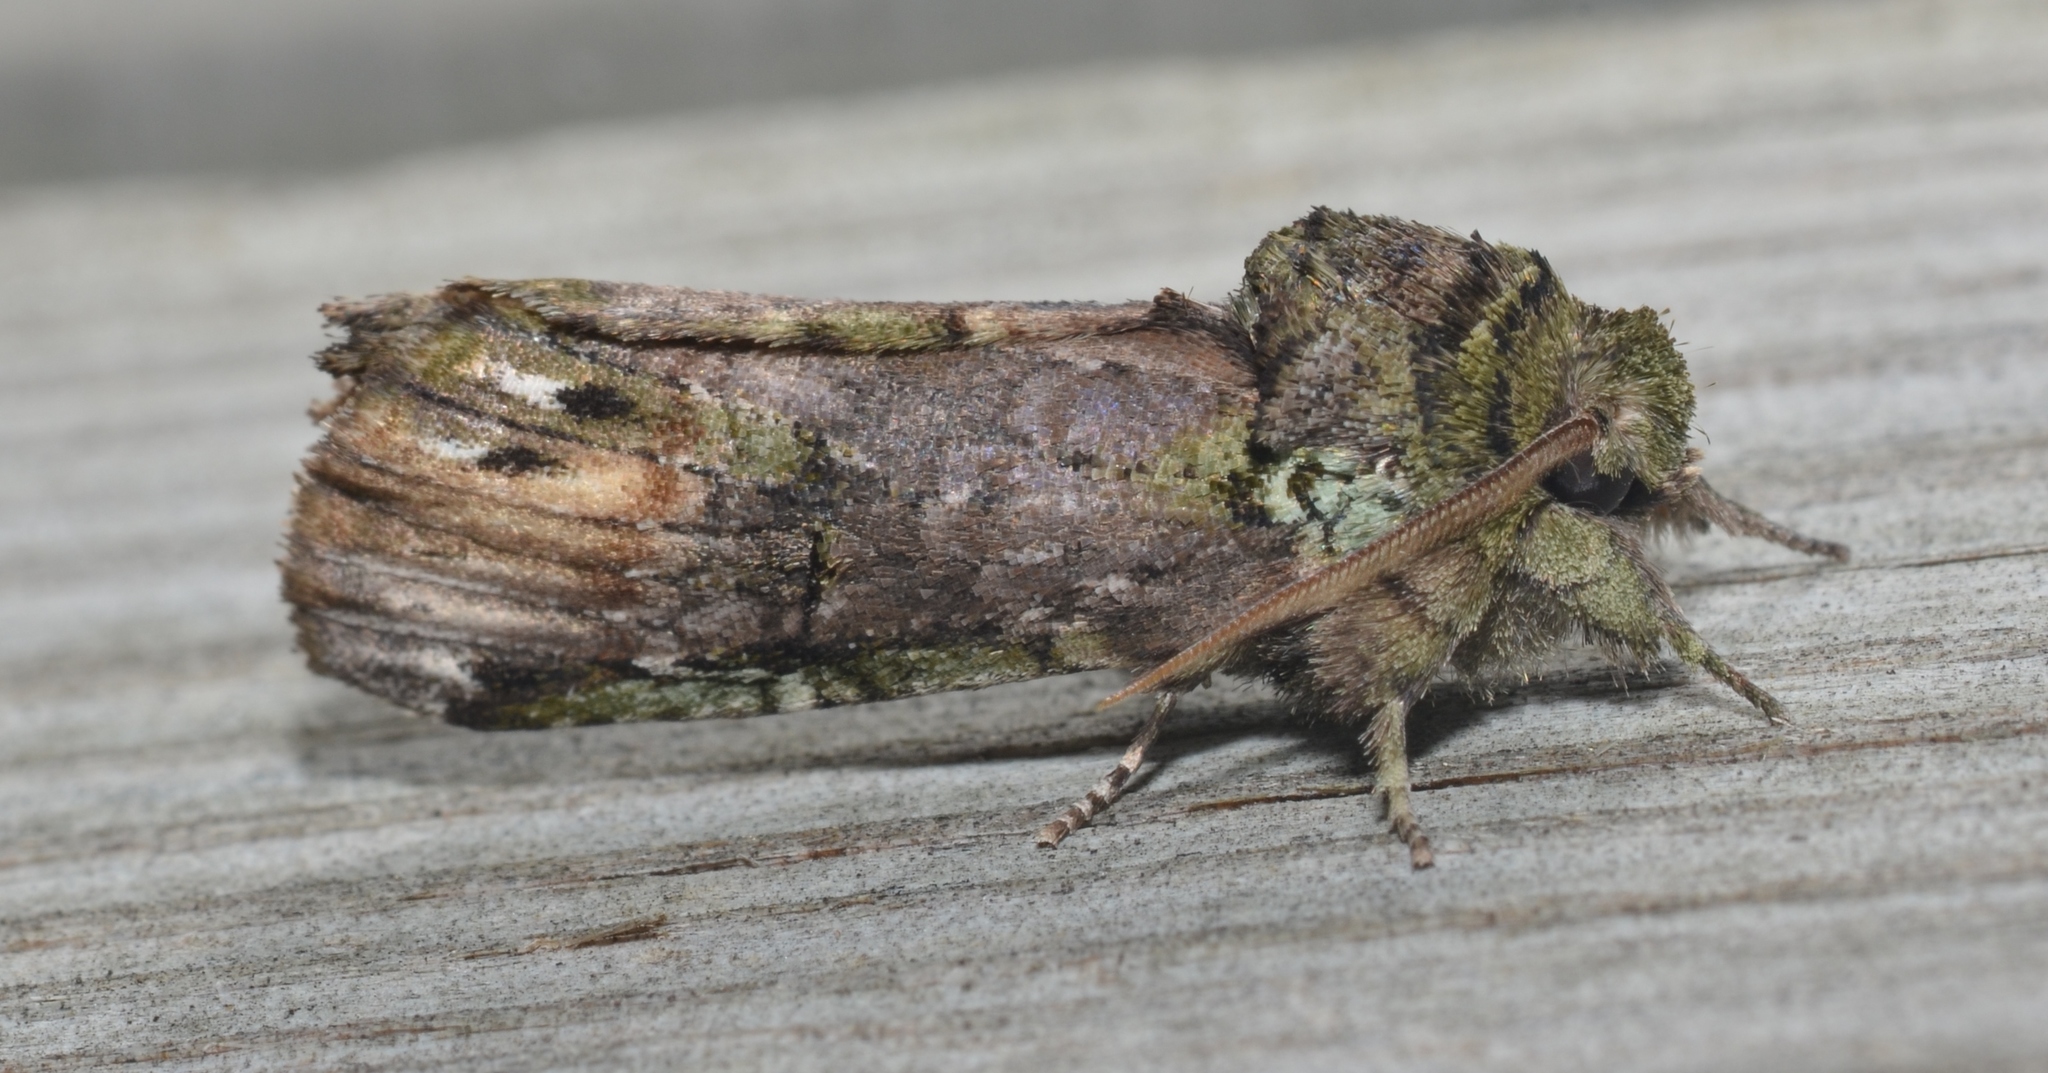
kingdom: Animalia
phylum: Arthropoda
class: Insecta
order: Lepidoptera
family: Notodontidae
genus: Schizura
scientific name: Schizura
